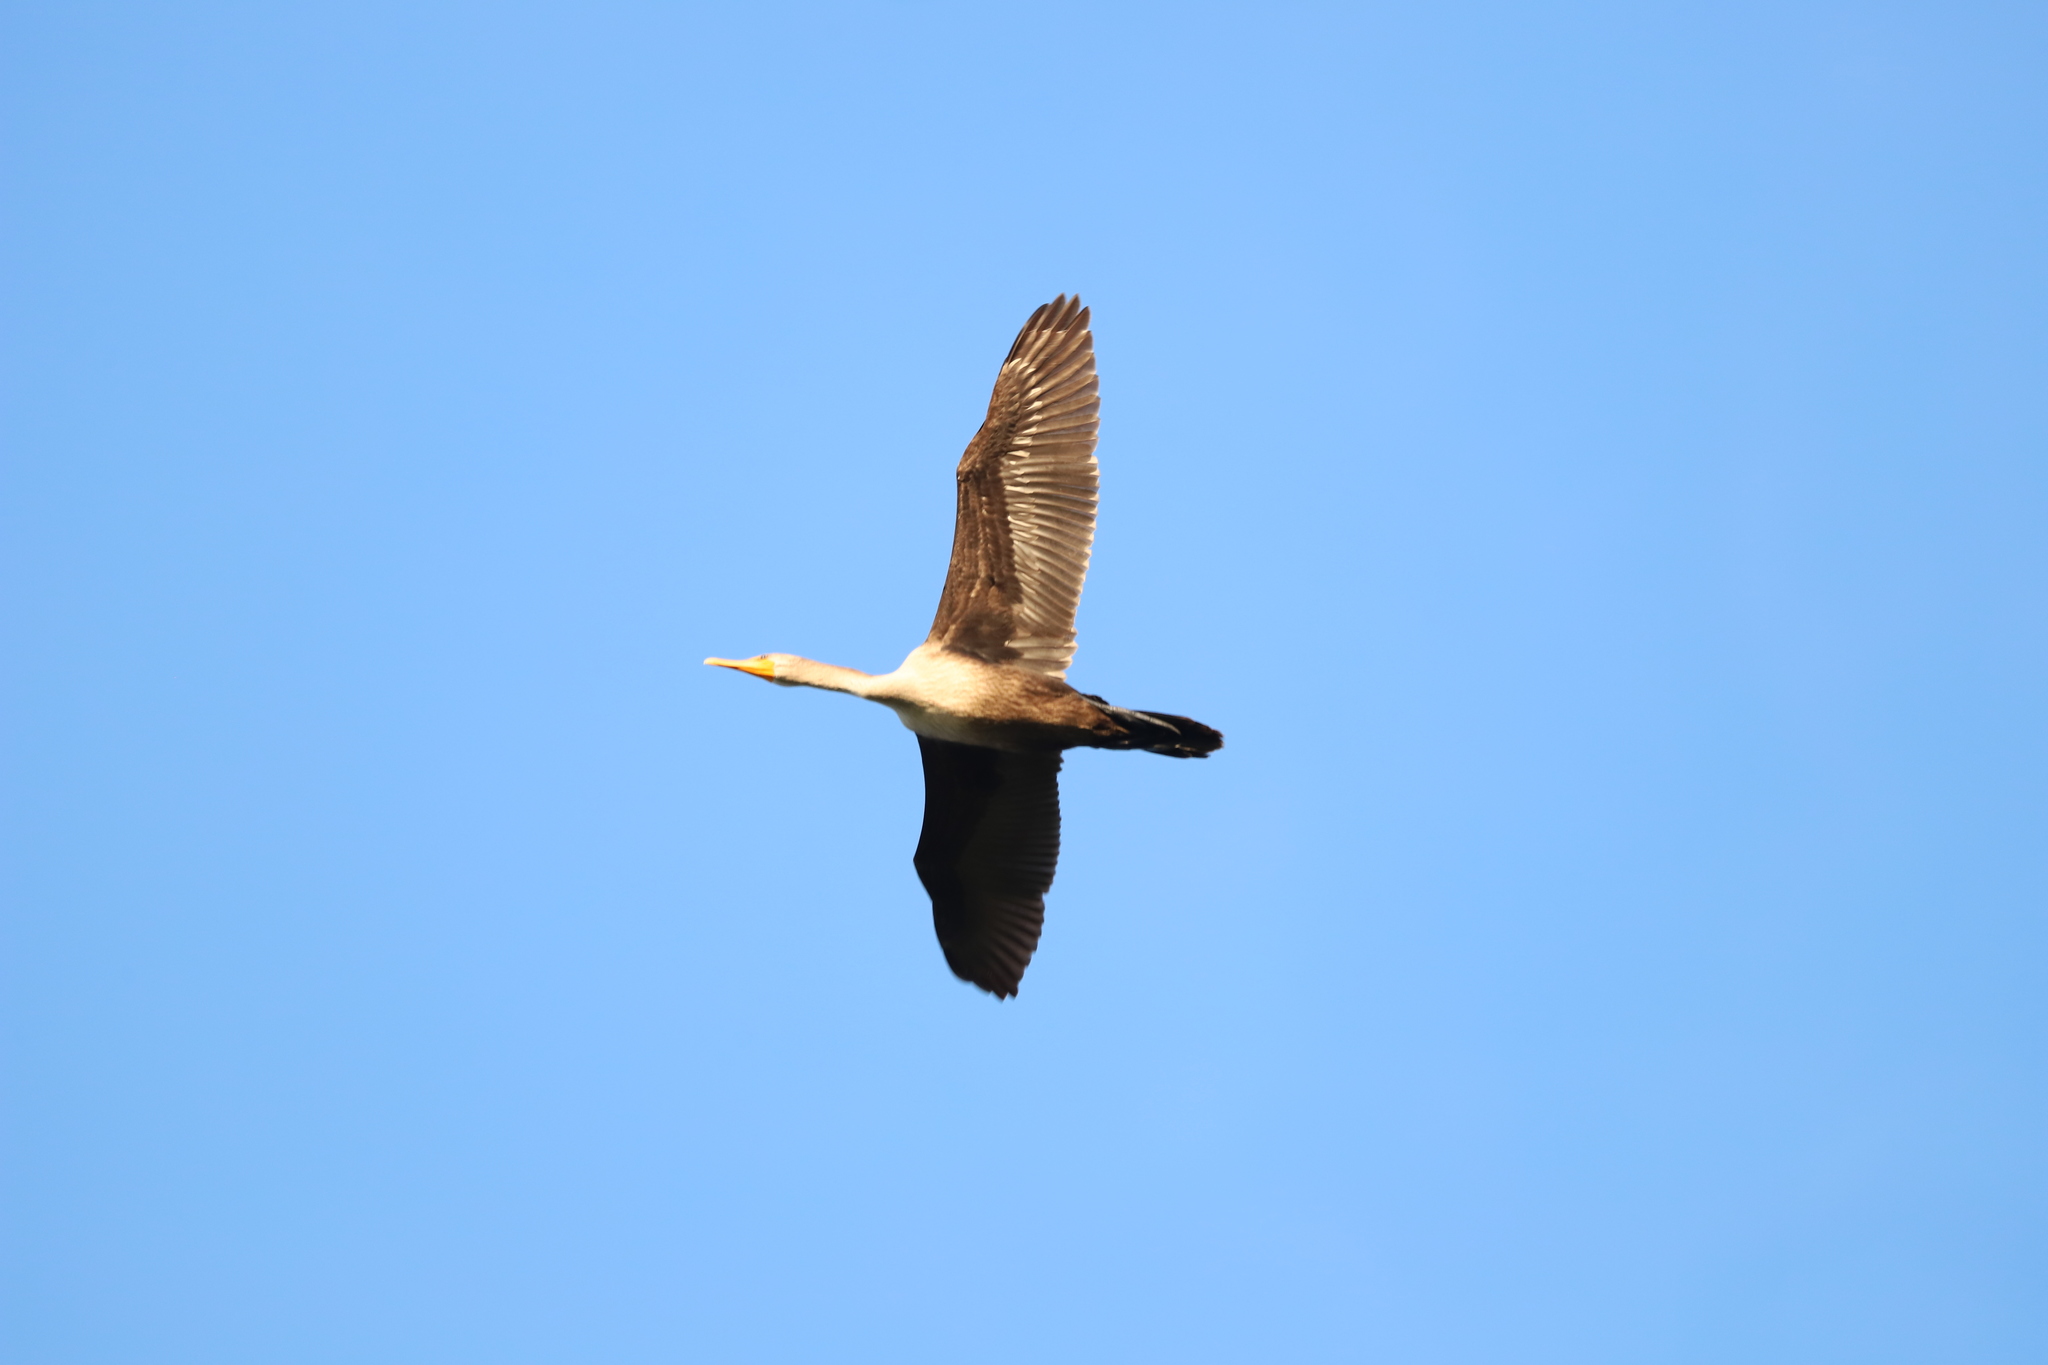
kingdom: Animalia
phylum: Chordata
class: Aves
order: Suliformes
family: Phalacrocoracidae
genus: Phalacrocorax
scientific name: Phalacrocorax auritus
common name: Double-crested cormorant
